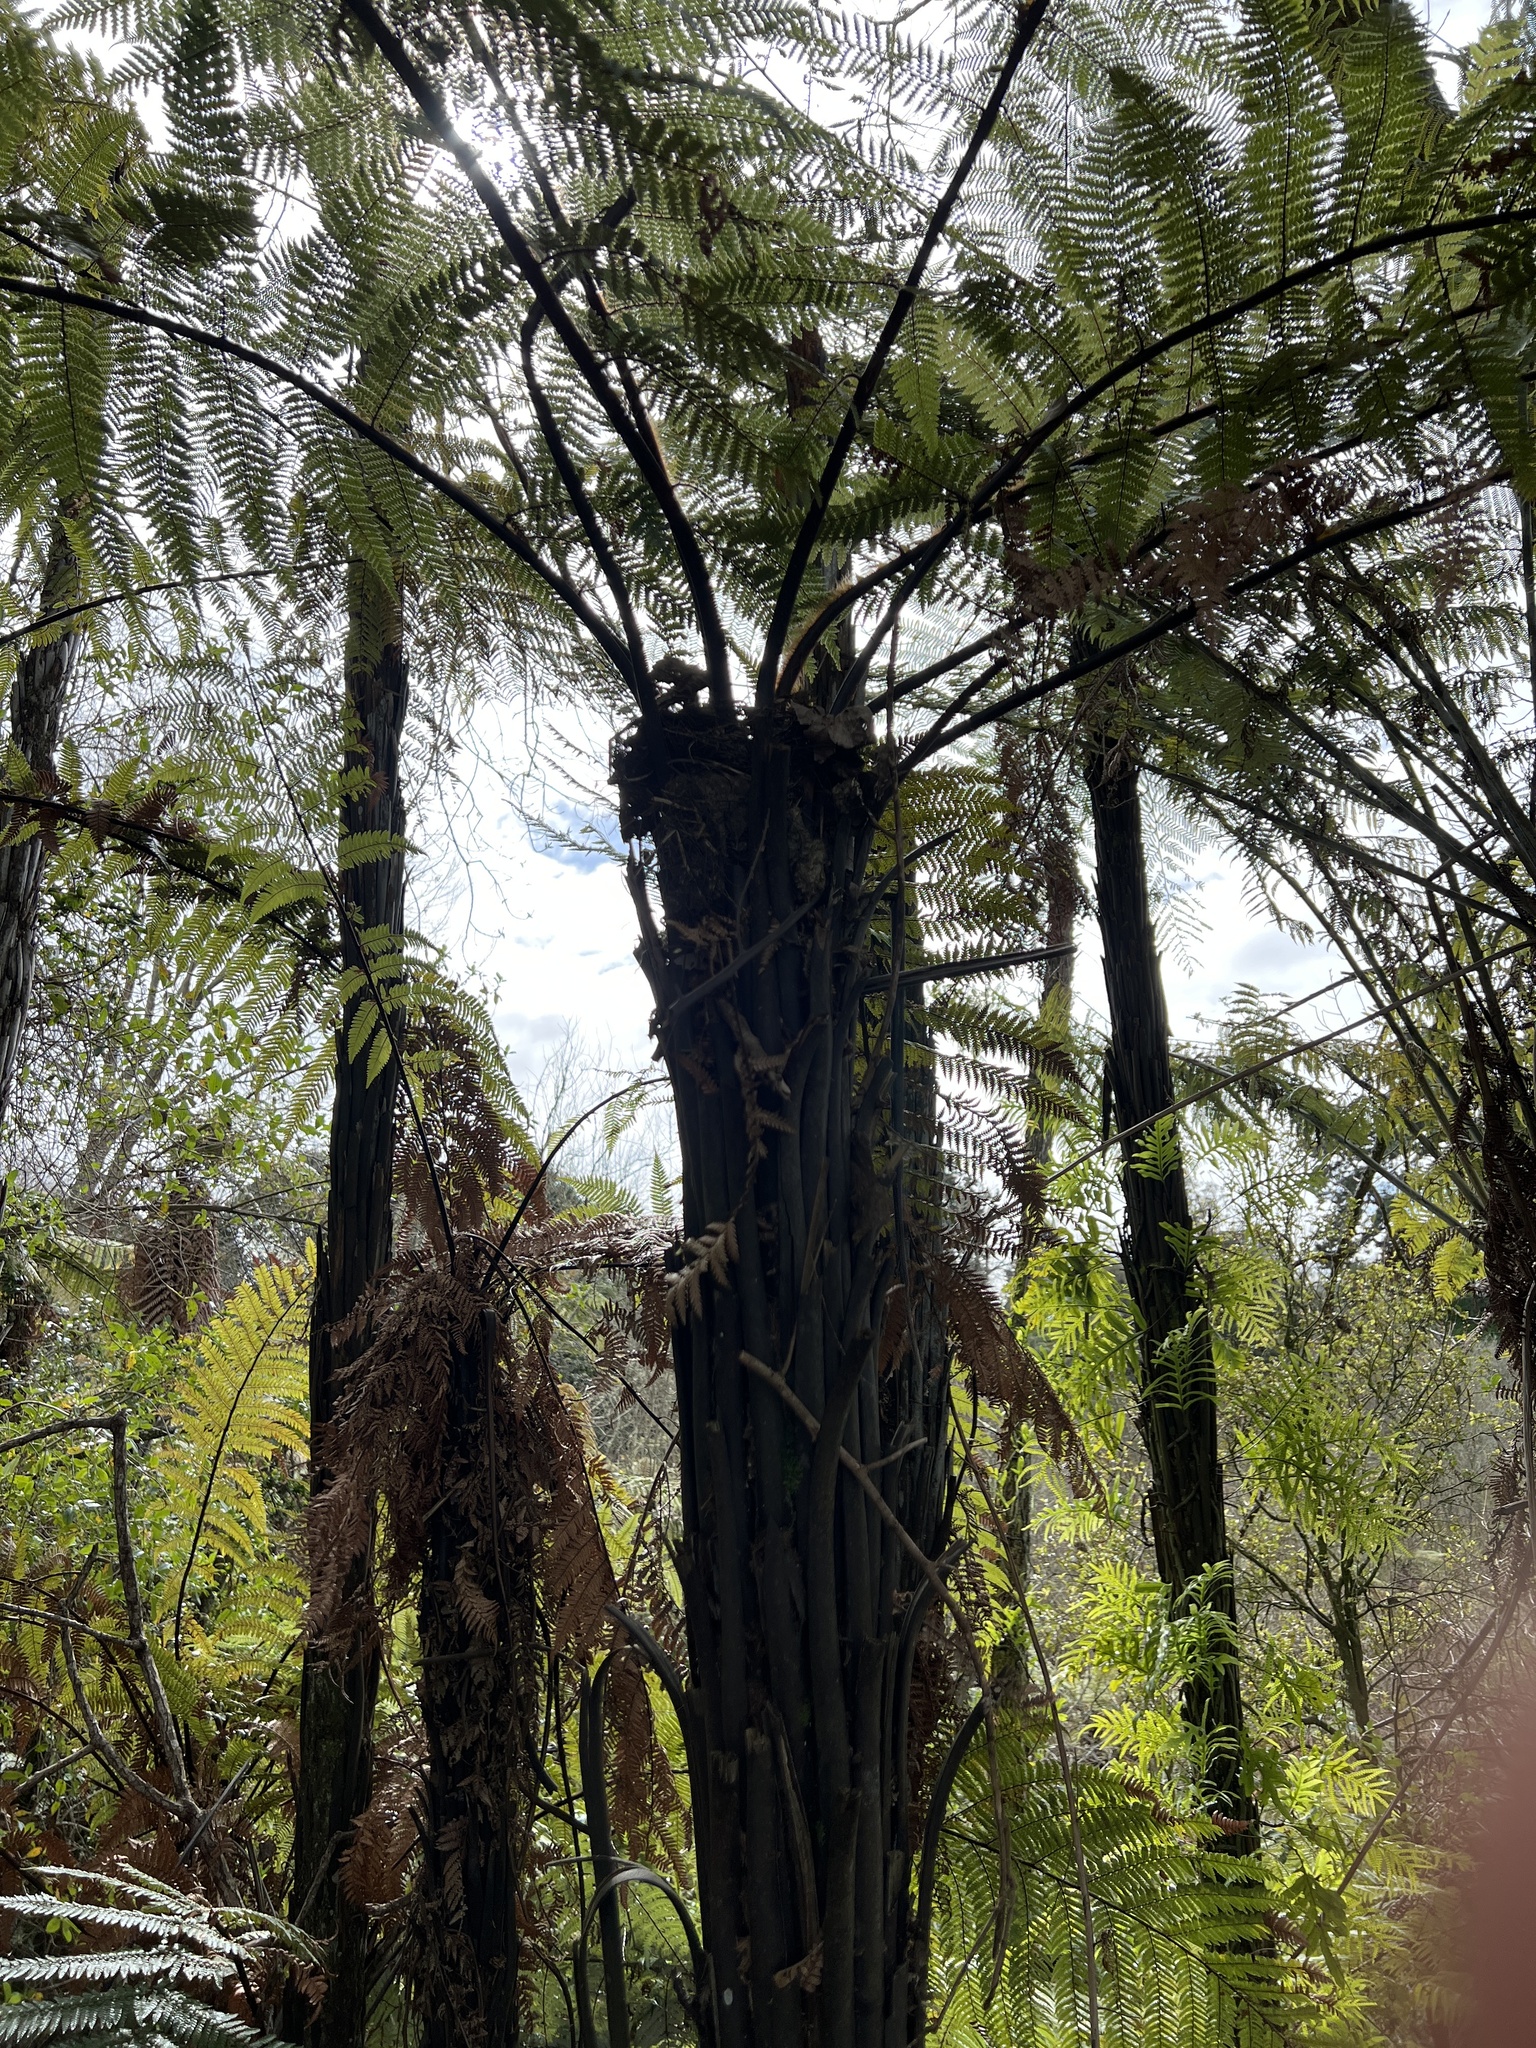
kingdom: Plantae
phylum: Tracheophyta
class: Polypodiopsida
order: Cyatheales
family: Dicksoniaceae
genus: Dicksonia
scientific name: Dicksonia squarrosa
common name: Hard treefern
